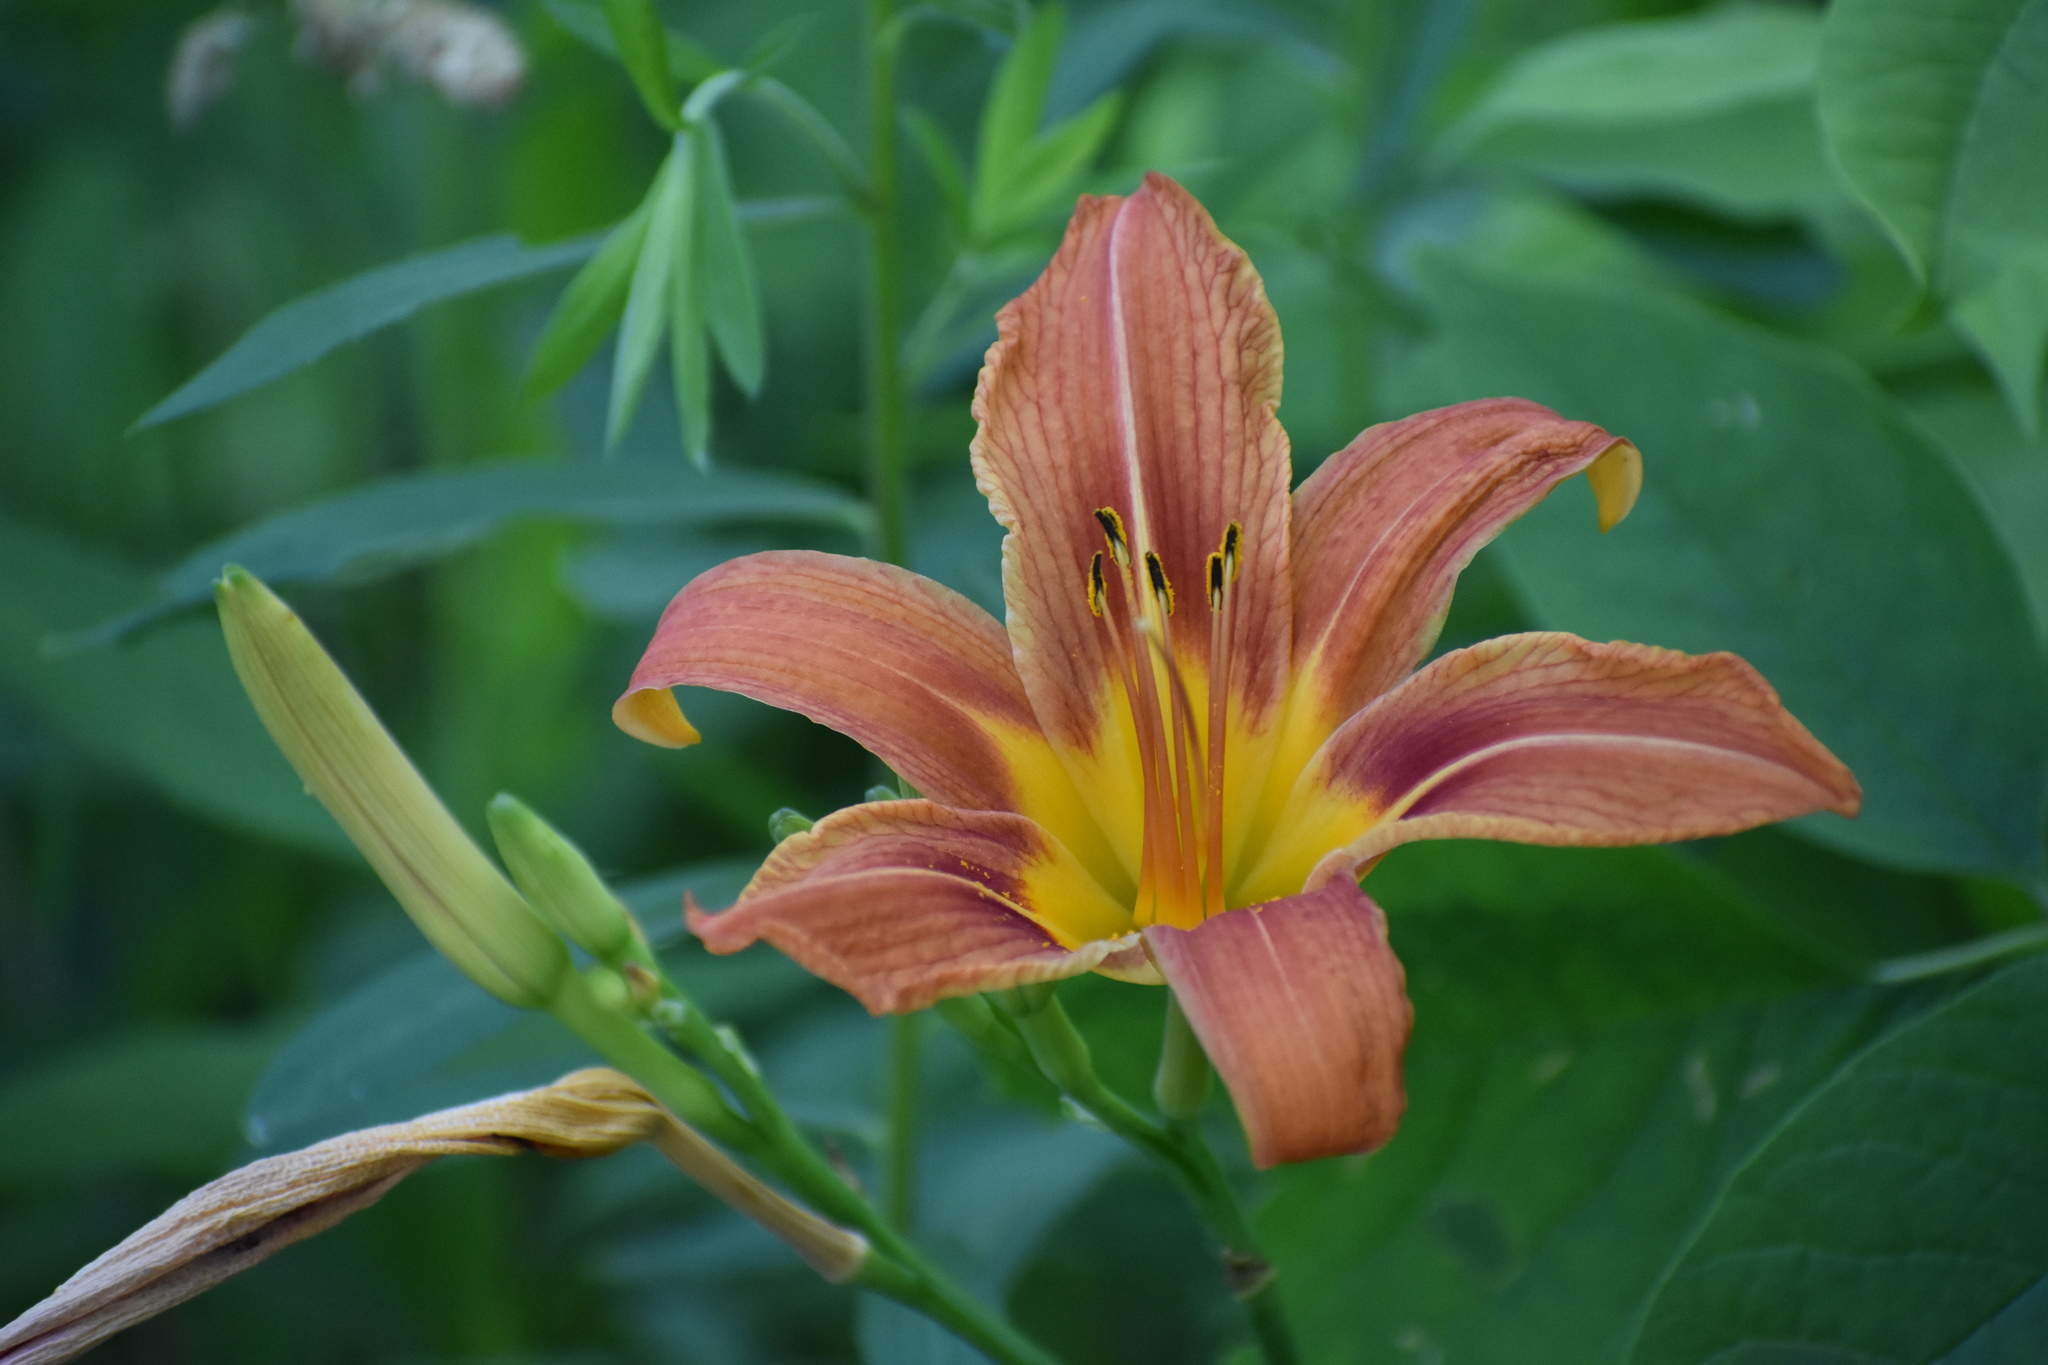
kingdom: Plantae
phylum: Tracheophyta
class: Liliopsida
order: Asparagales
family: Asphodelaceae
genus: Hemerocallis
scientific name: Hemerocallis fulva
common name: Orange day-lily
